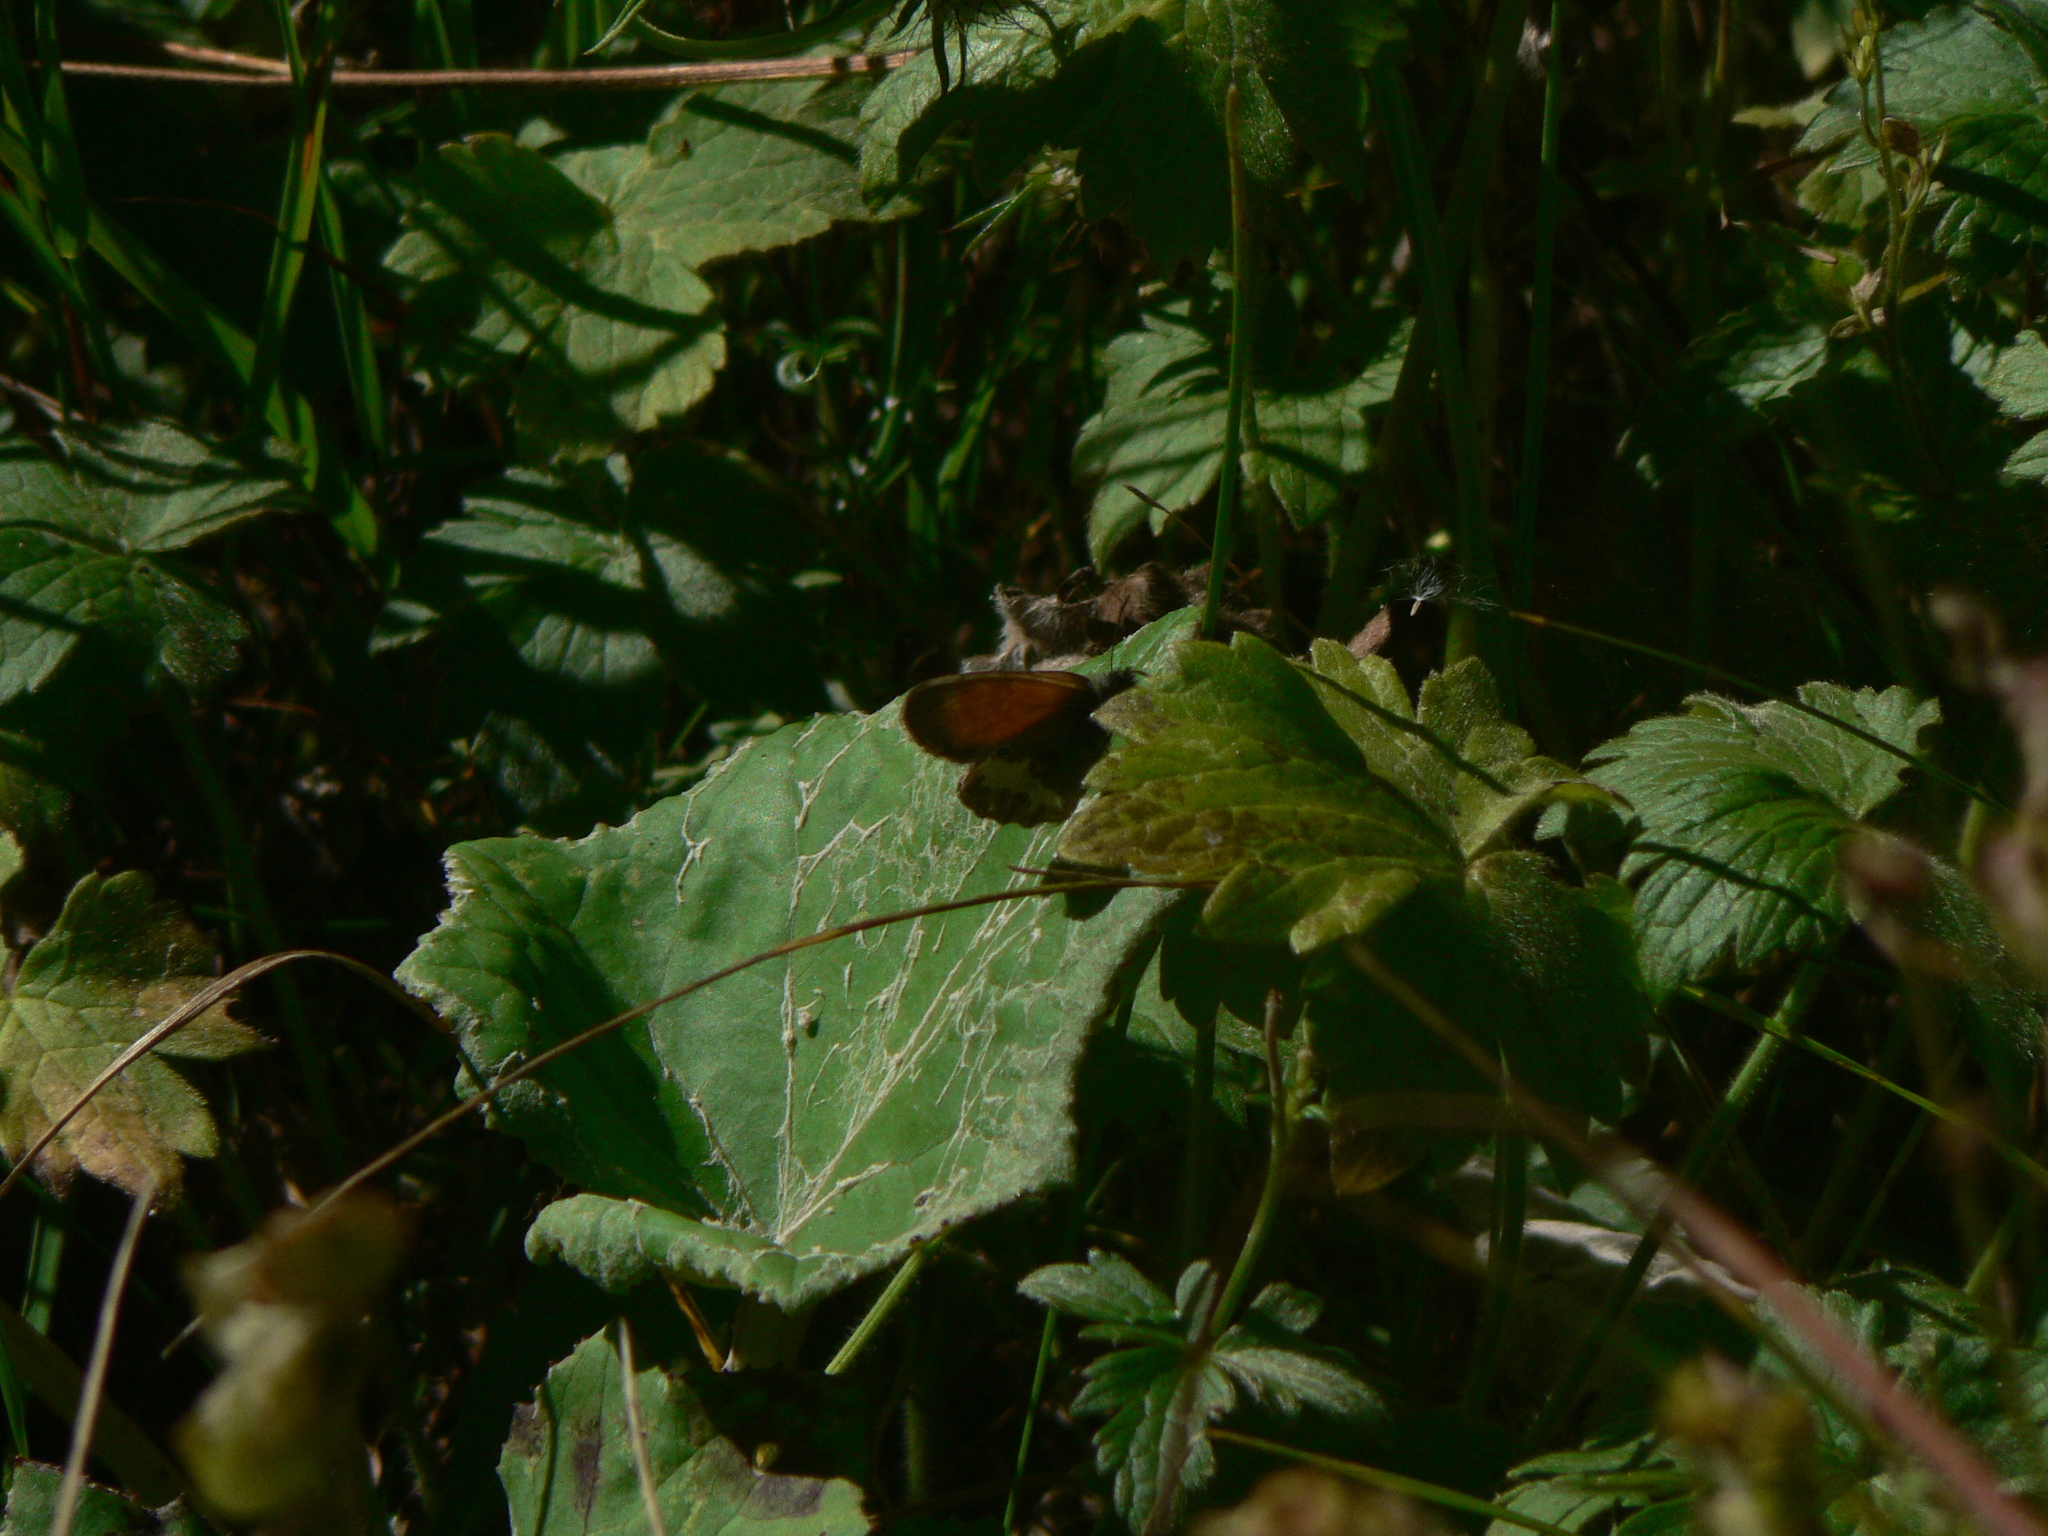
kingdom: Animalia
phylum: Arthropoda
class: Insecta
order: Lepidoptera
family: Nymphalidae
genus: Coenonympha
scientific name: Coenonympha arcania
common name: Pearly heath
